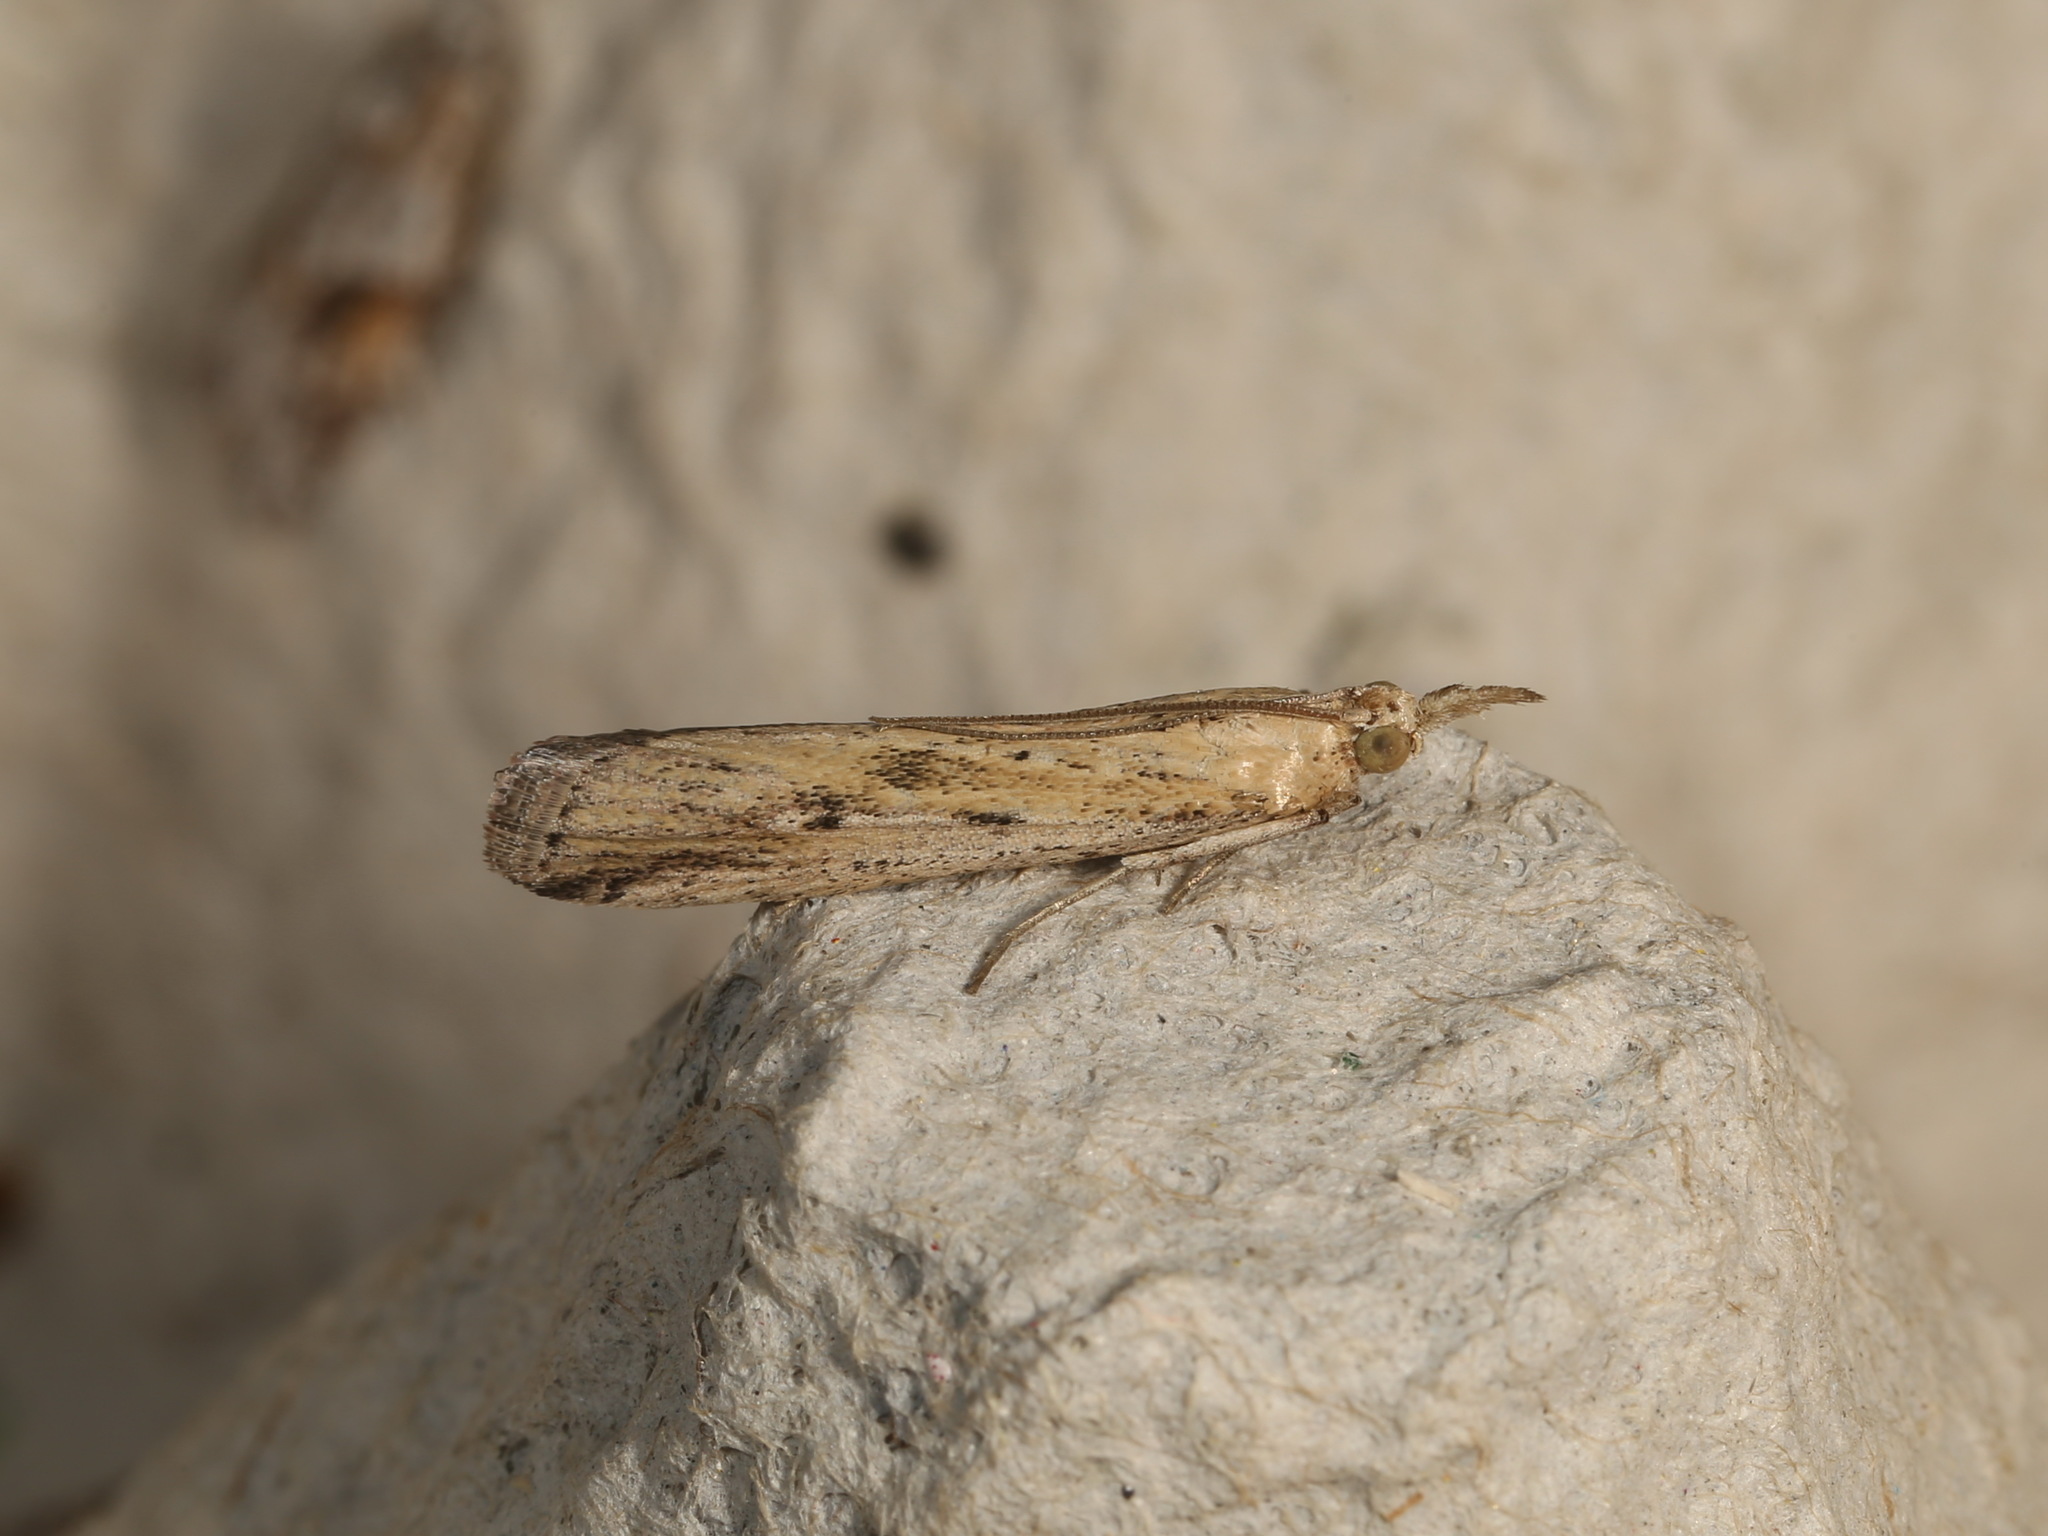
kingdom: Animalia
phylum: Arthropoda
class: Insecta
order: Lepidoptera
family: Pyralidae
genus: Faveria
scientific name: Faveria tritalis
